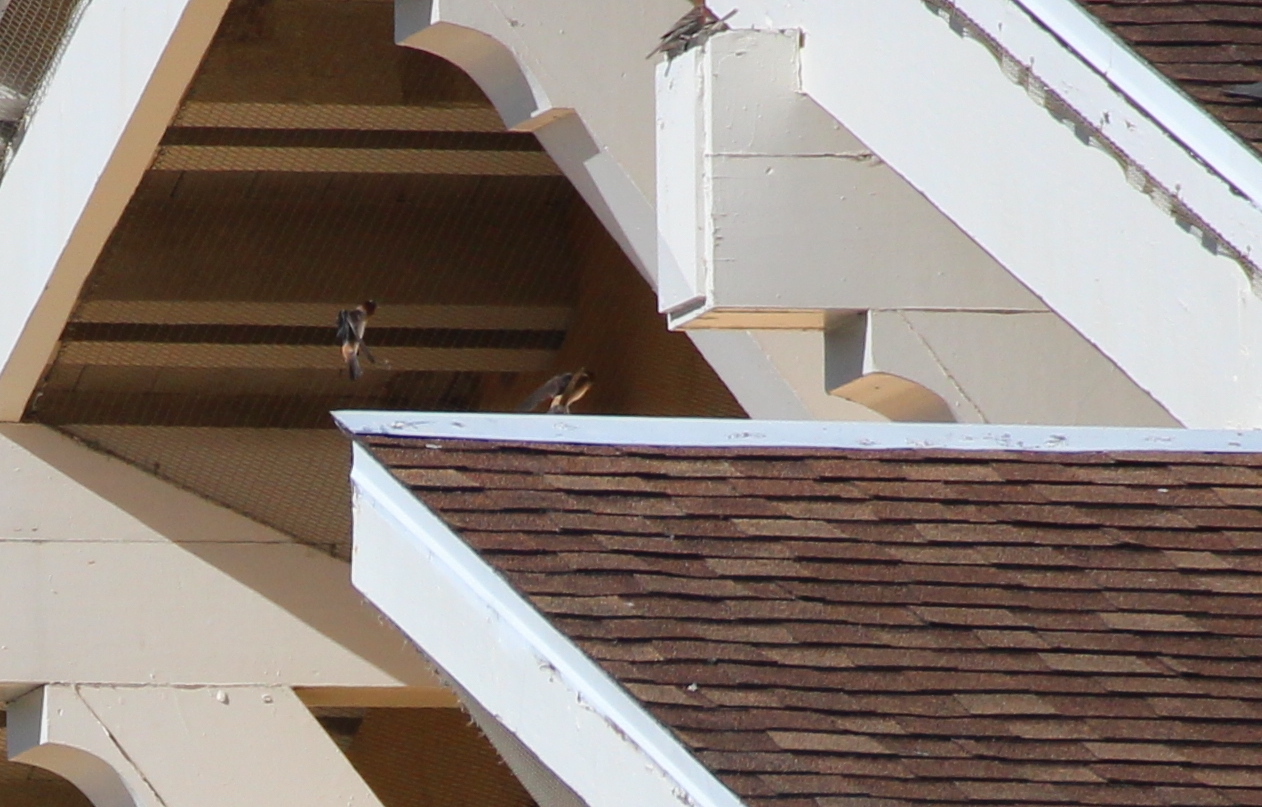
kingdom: Animalia
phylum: Chordata
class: Aves
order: Passeriformes
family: Hirundinidae
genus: Petrochelidon
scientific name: Petrochelidon pyrrhonota
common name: American cliff swallow
